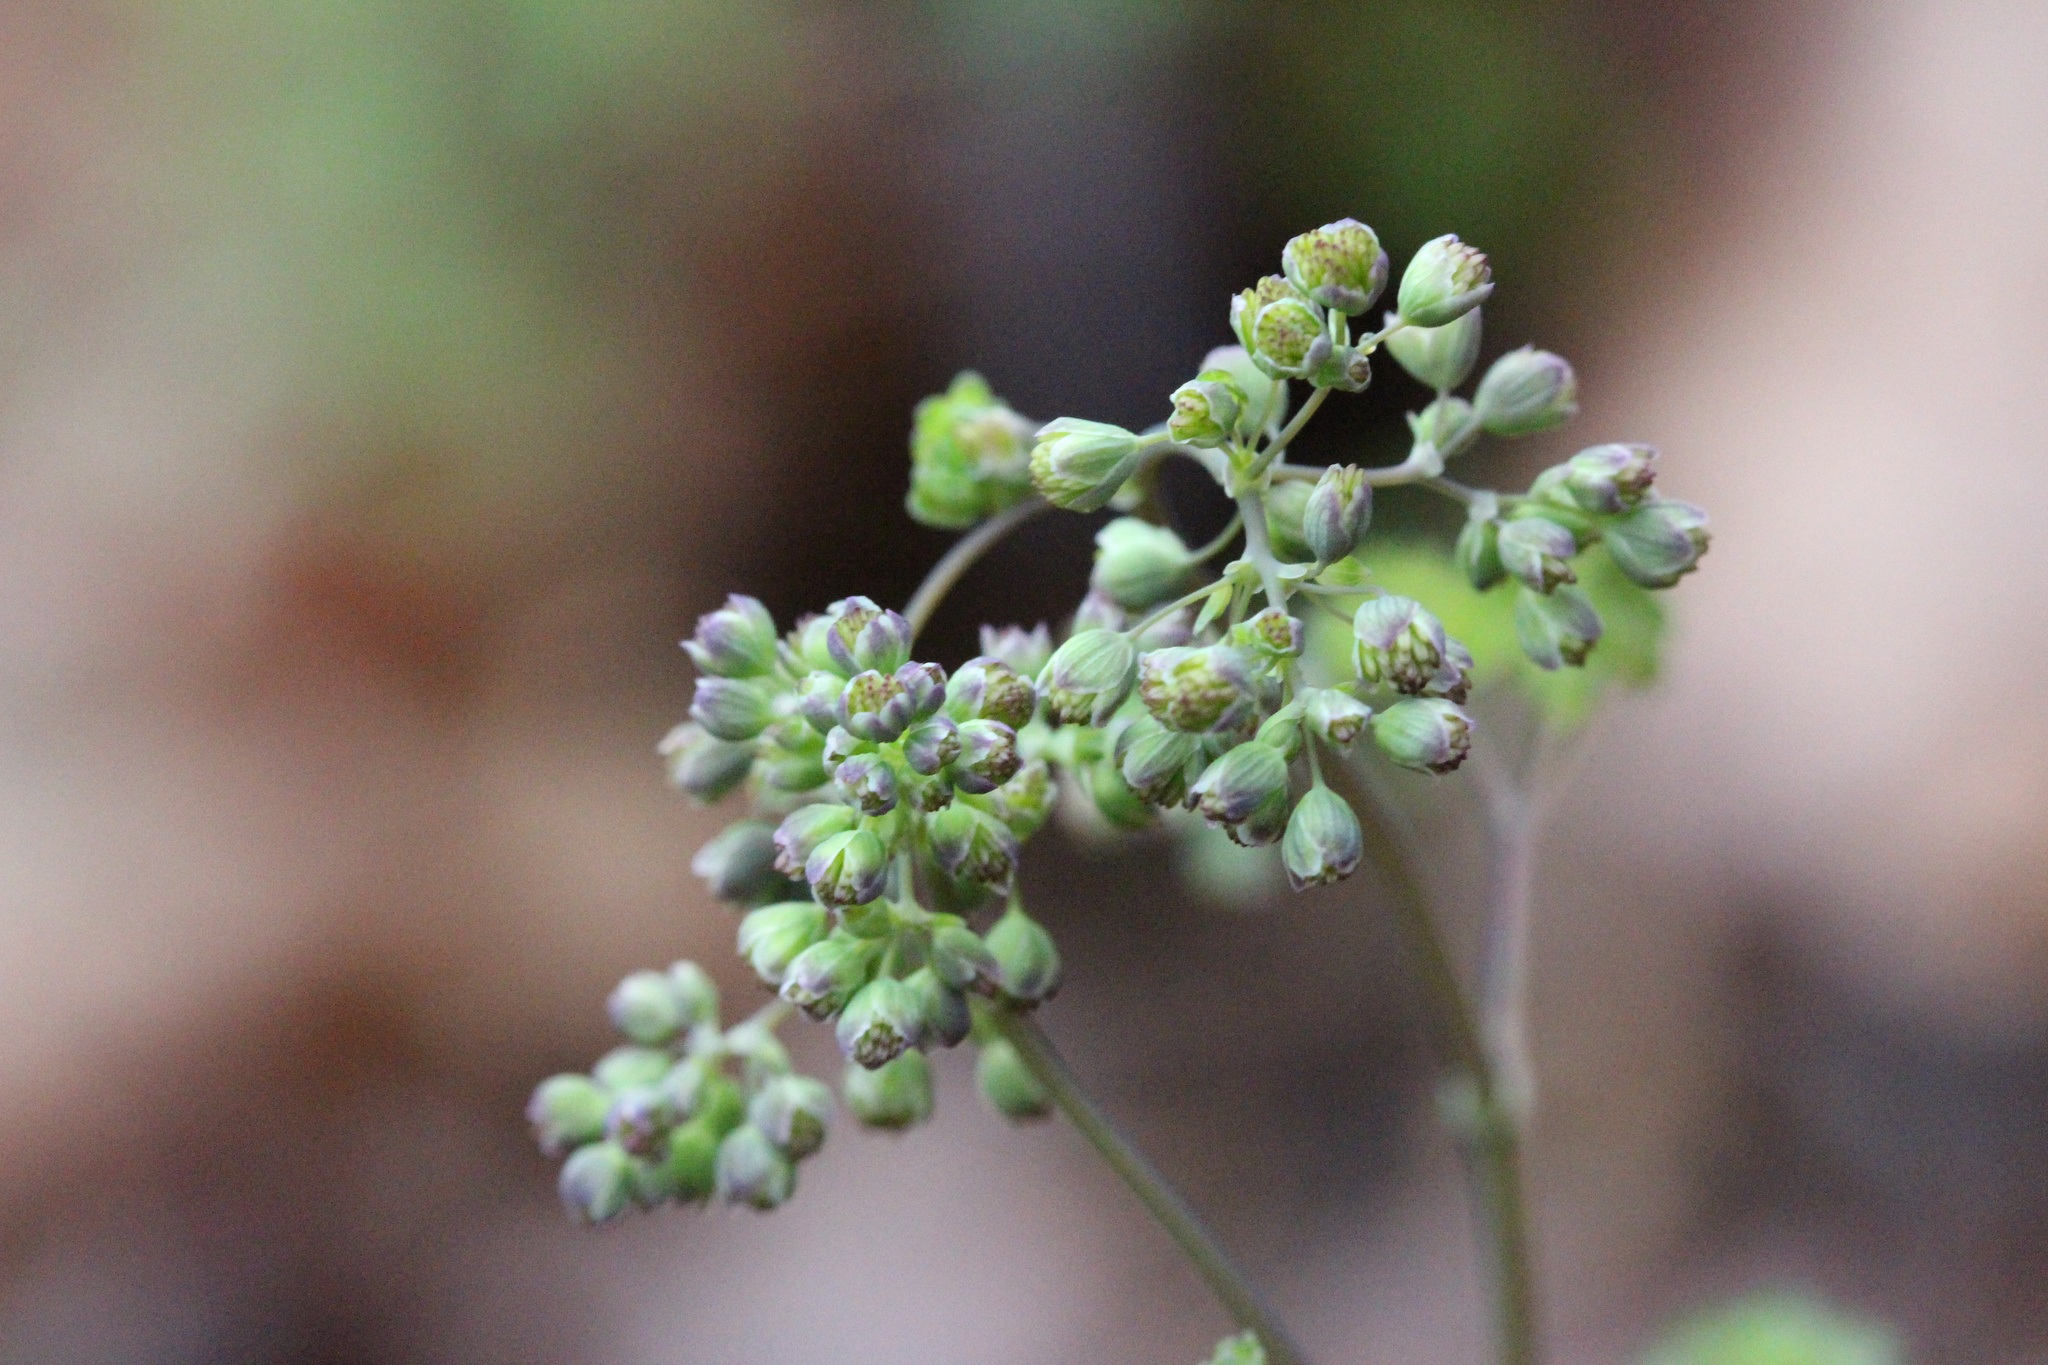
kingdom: Plantae
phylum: Tracheophyta
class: Magnoliopsida
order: Ranunculales
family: Ranunculaceae
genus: Thalictrum
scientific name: Thalictrum dioicum
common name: Early meadow-rue
